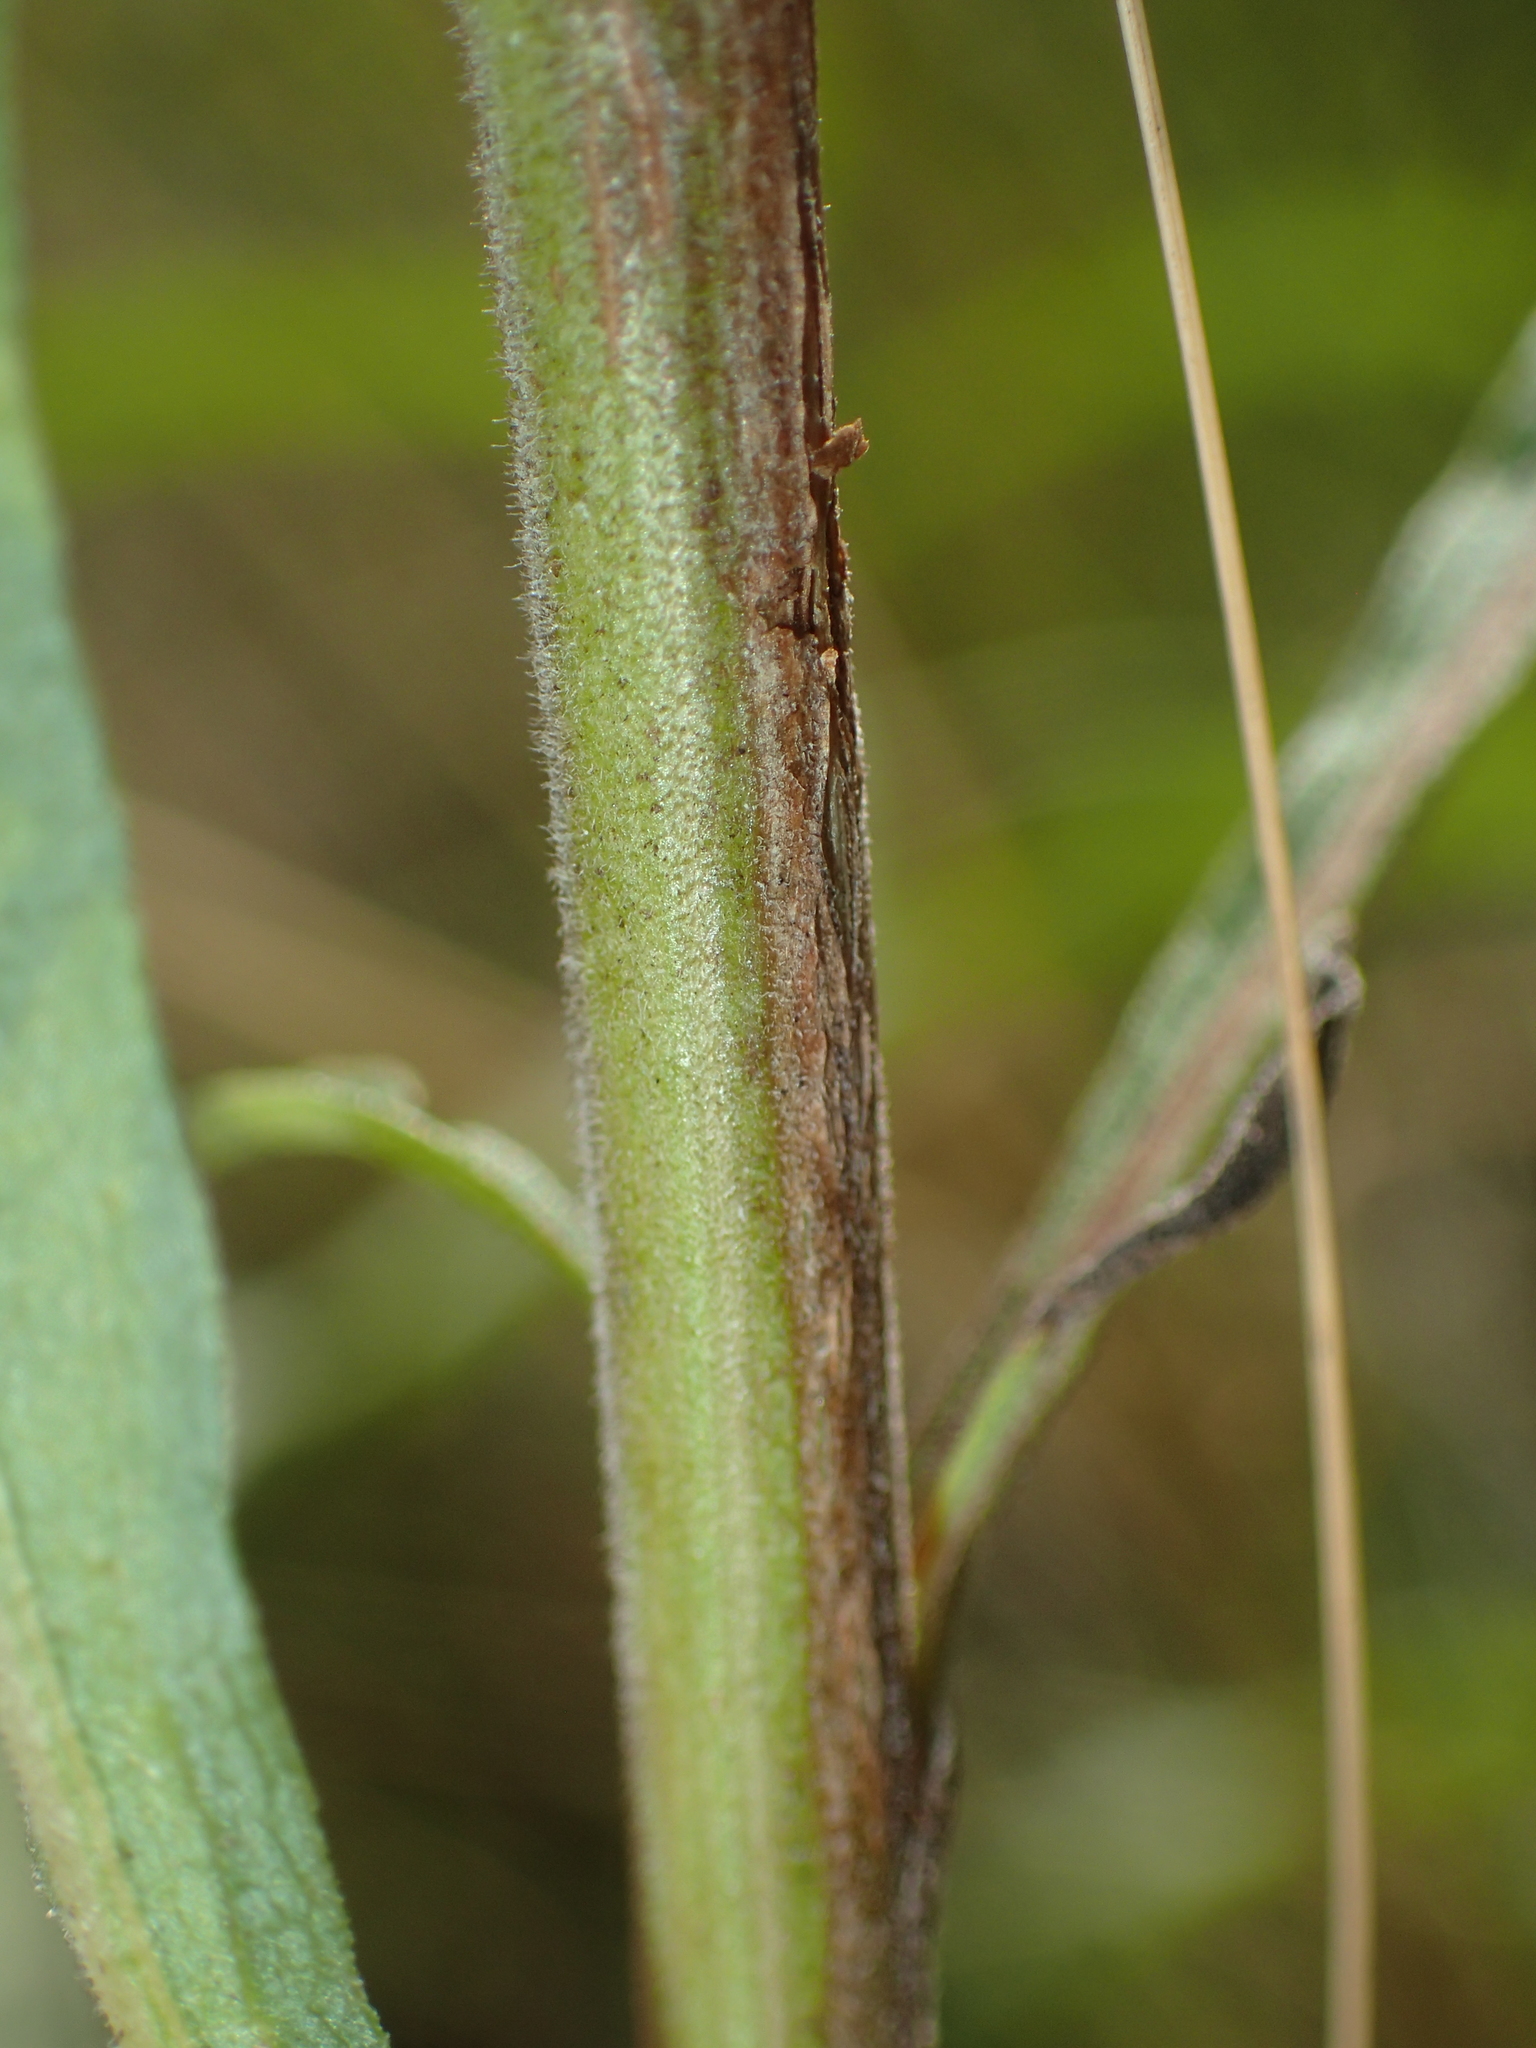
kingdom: Plantae
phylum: Tracheophyta
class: Magnoliopsida
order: Asterales
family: Asteraceae
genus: Solidago
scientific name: Solidago nemoralis
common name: Grey goldenrod
